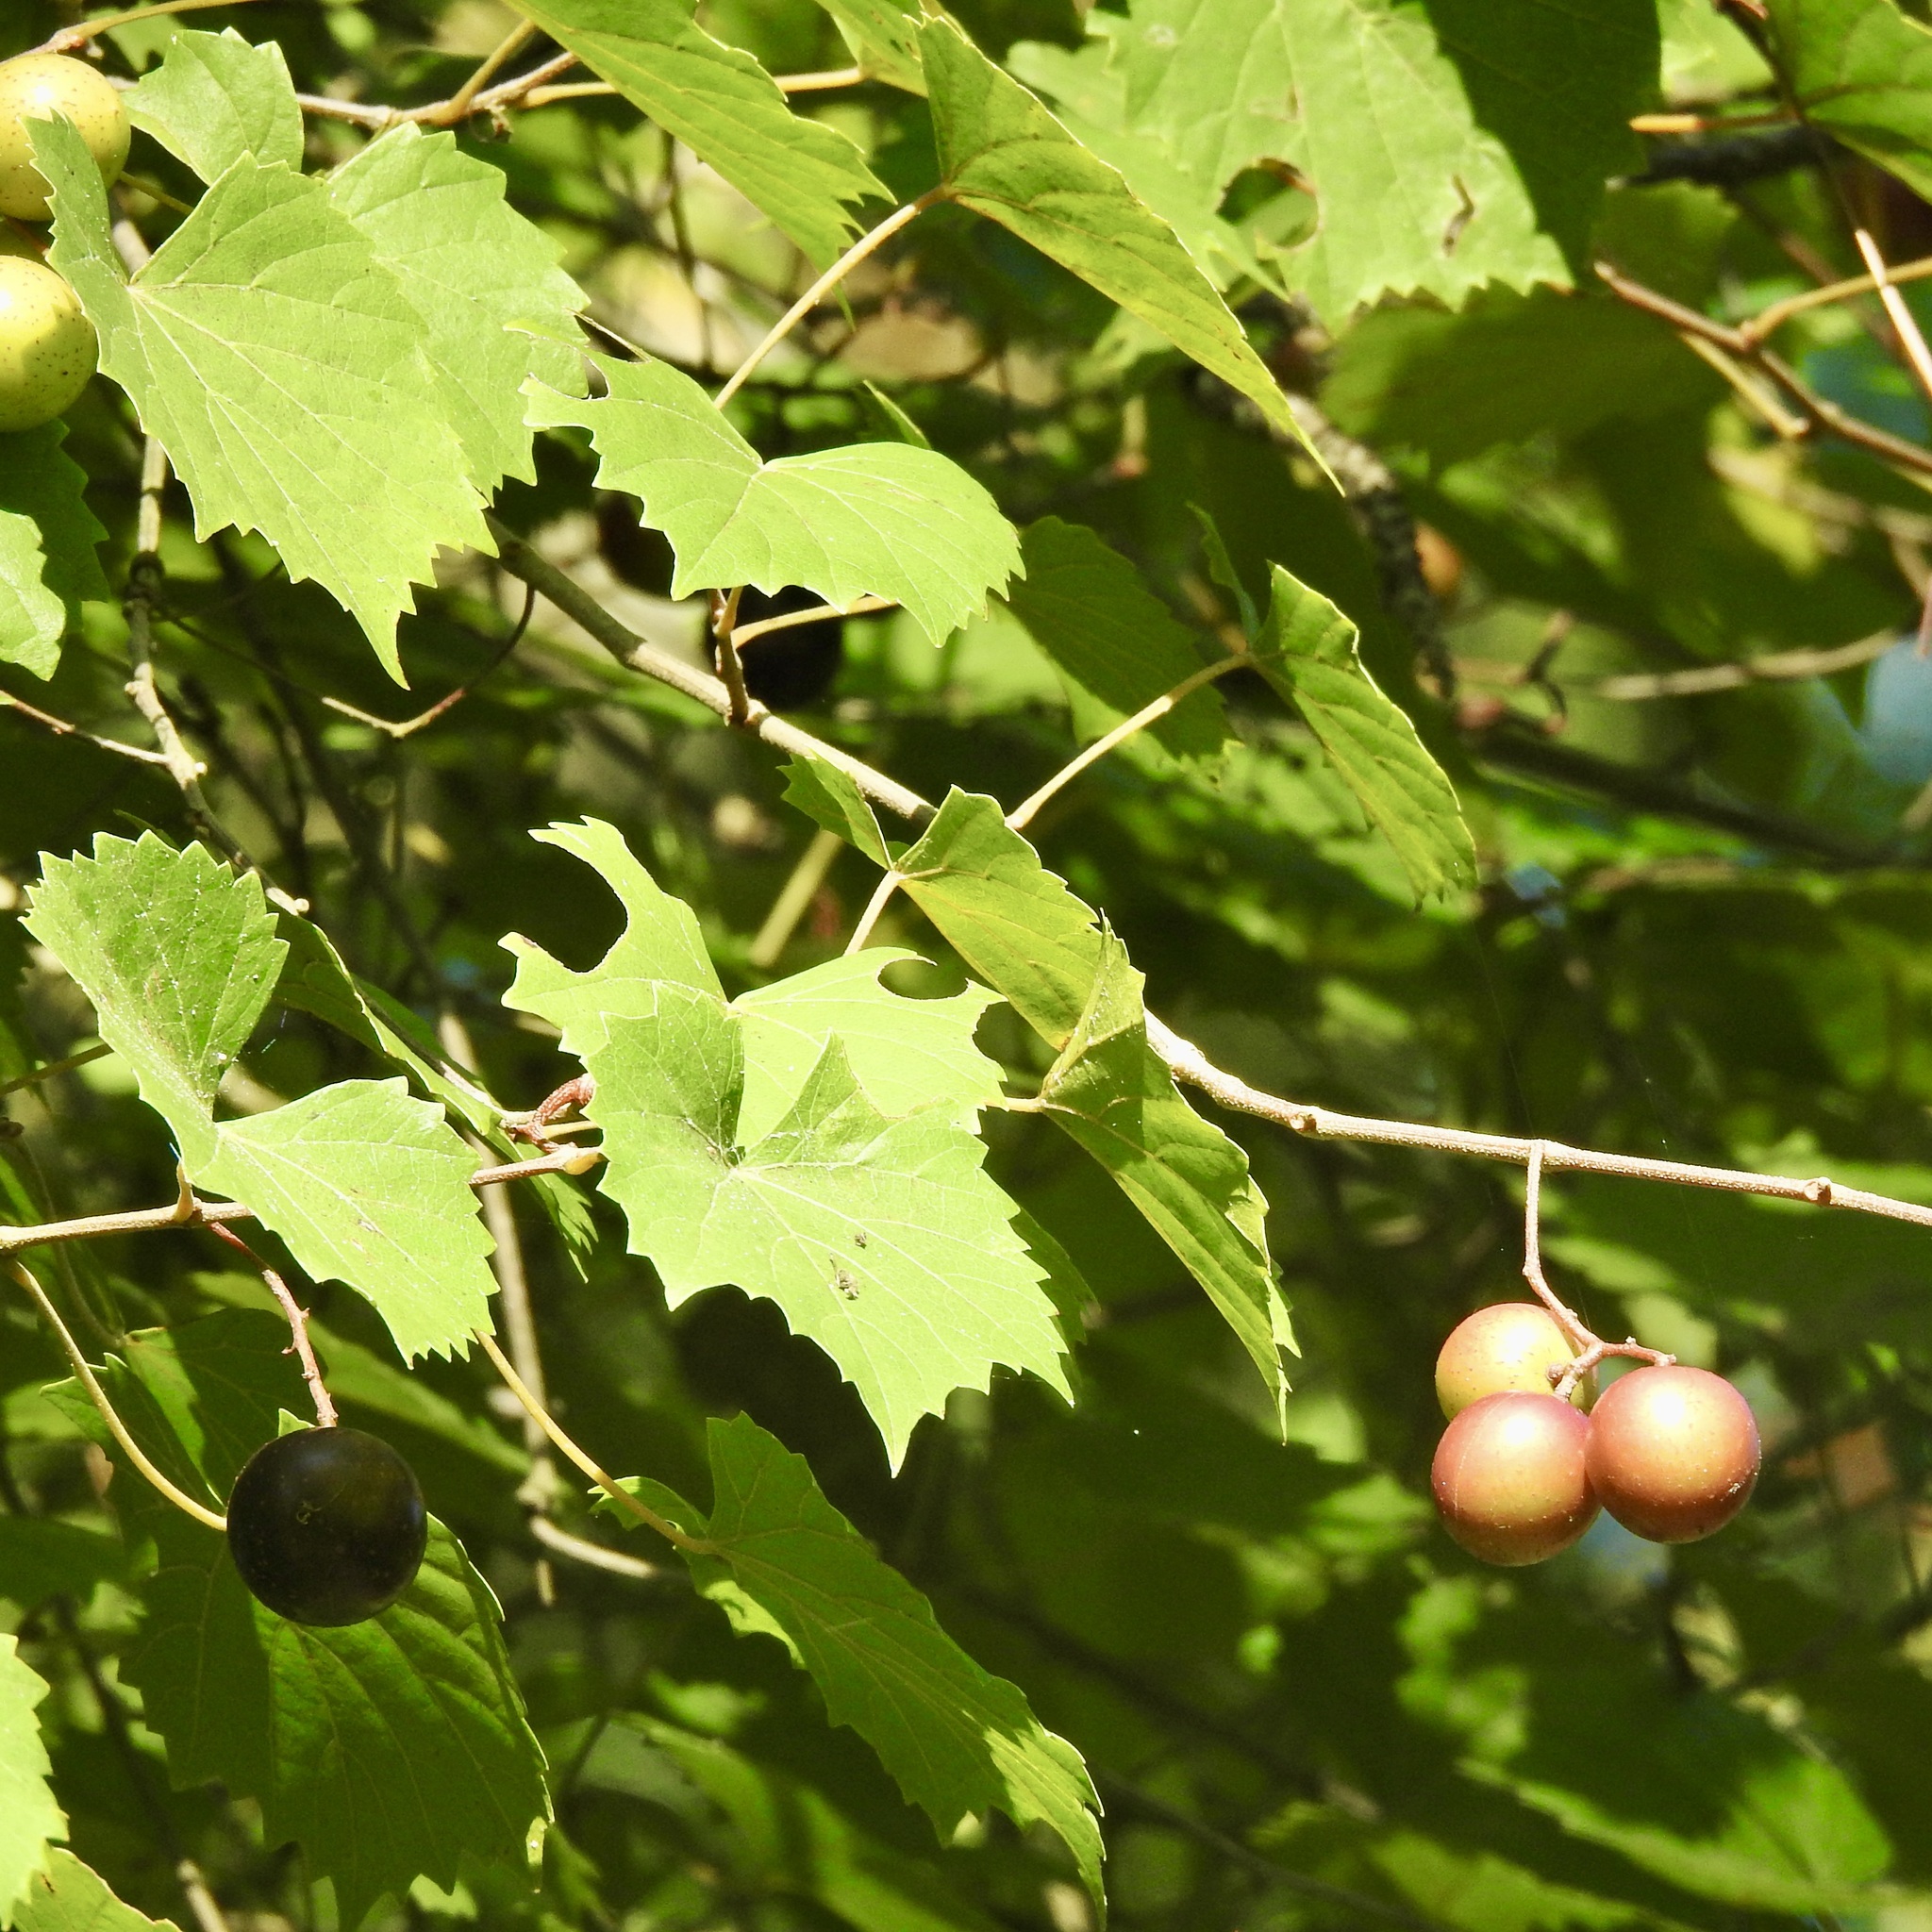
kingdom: Plantae
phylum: Tracheophyta
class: Magnoliopsida
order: Vitales
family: Vitaceae
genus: Vitis
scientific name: Vitis rotundifolia
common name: Muscadine grape
